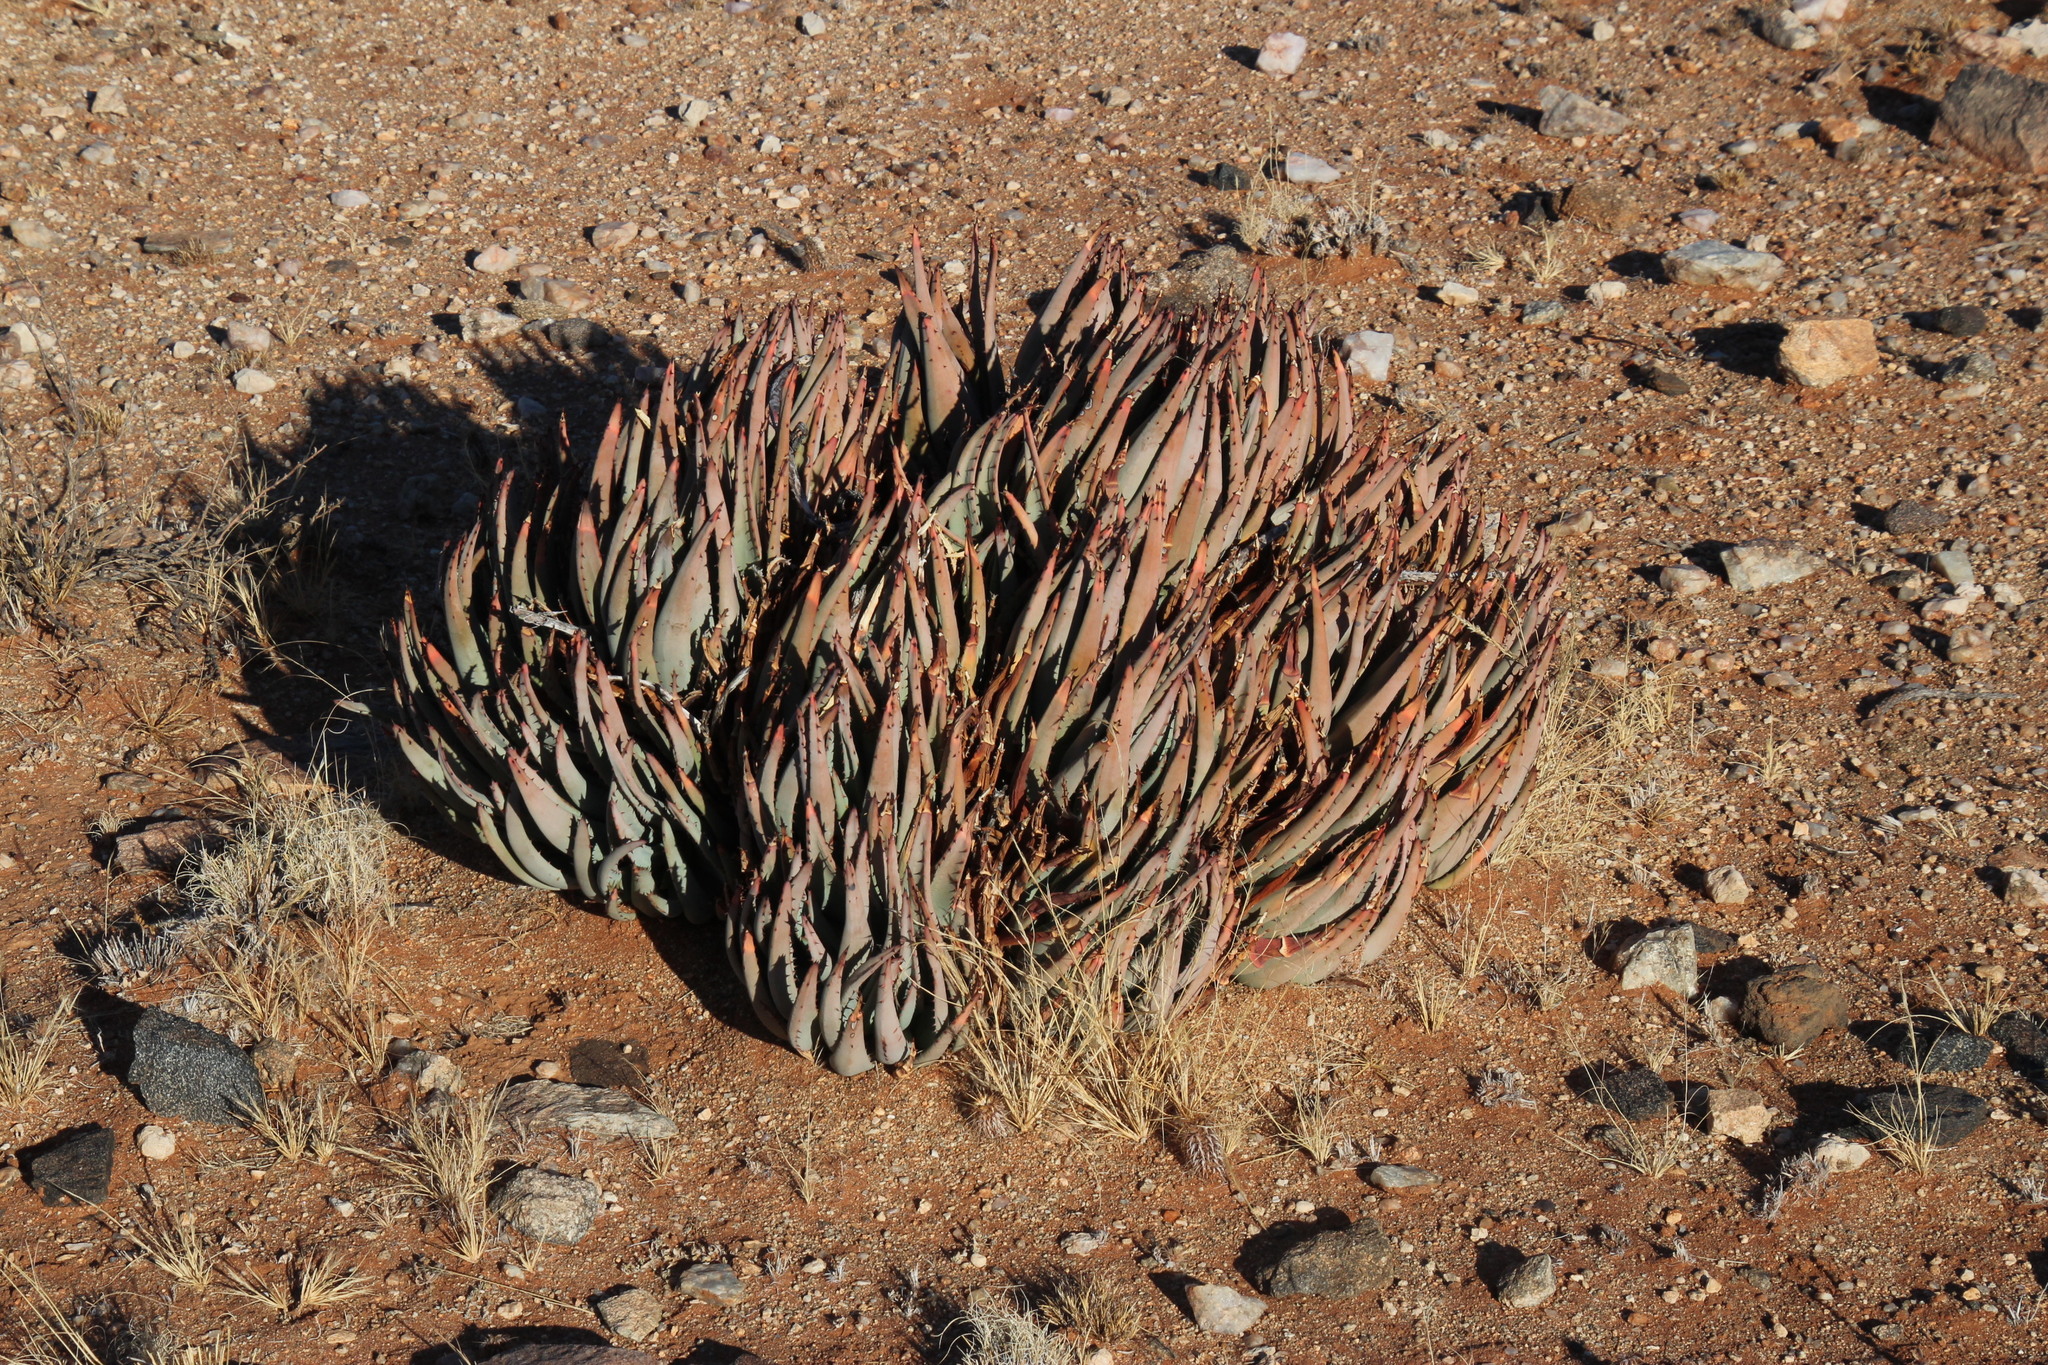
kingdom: Plantae
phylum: Tracheophyta
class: Liliopsida
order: Asparagales
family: Asphodelaceae
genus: Aloe
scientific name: Aloe claviflora
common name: Cannon aloe
